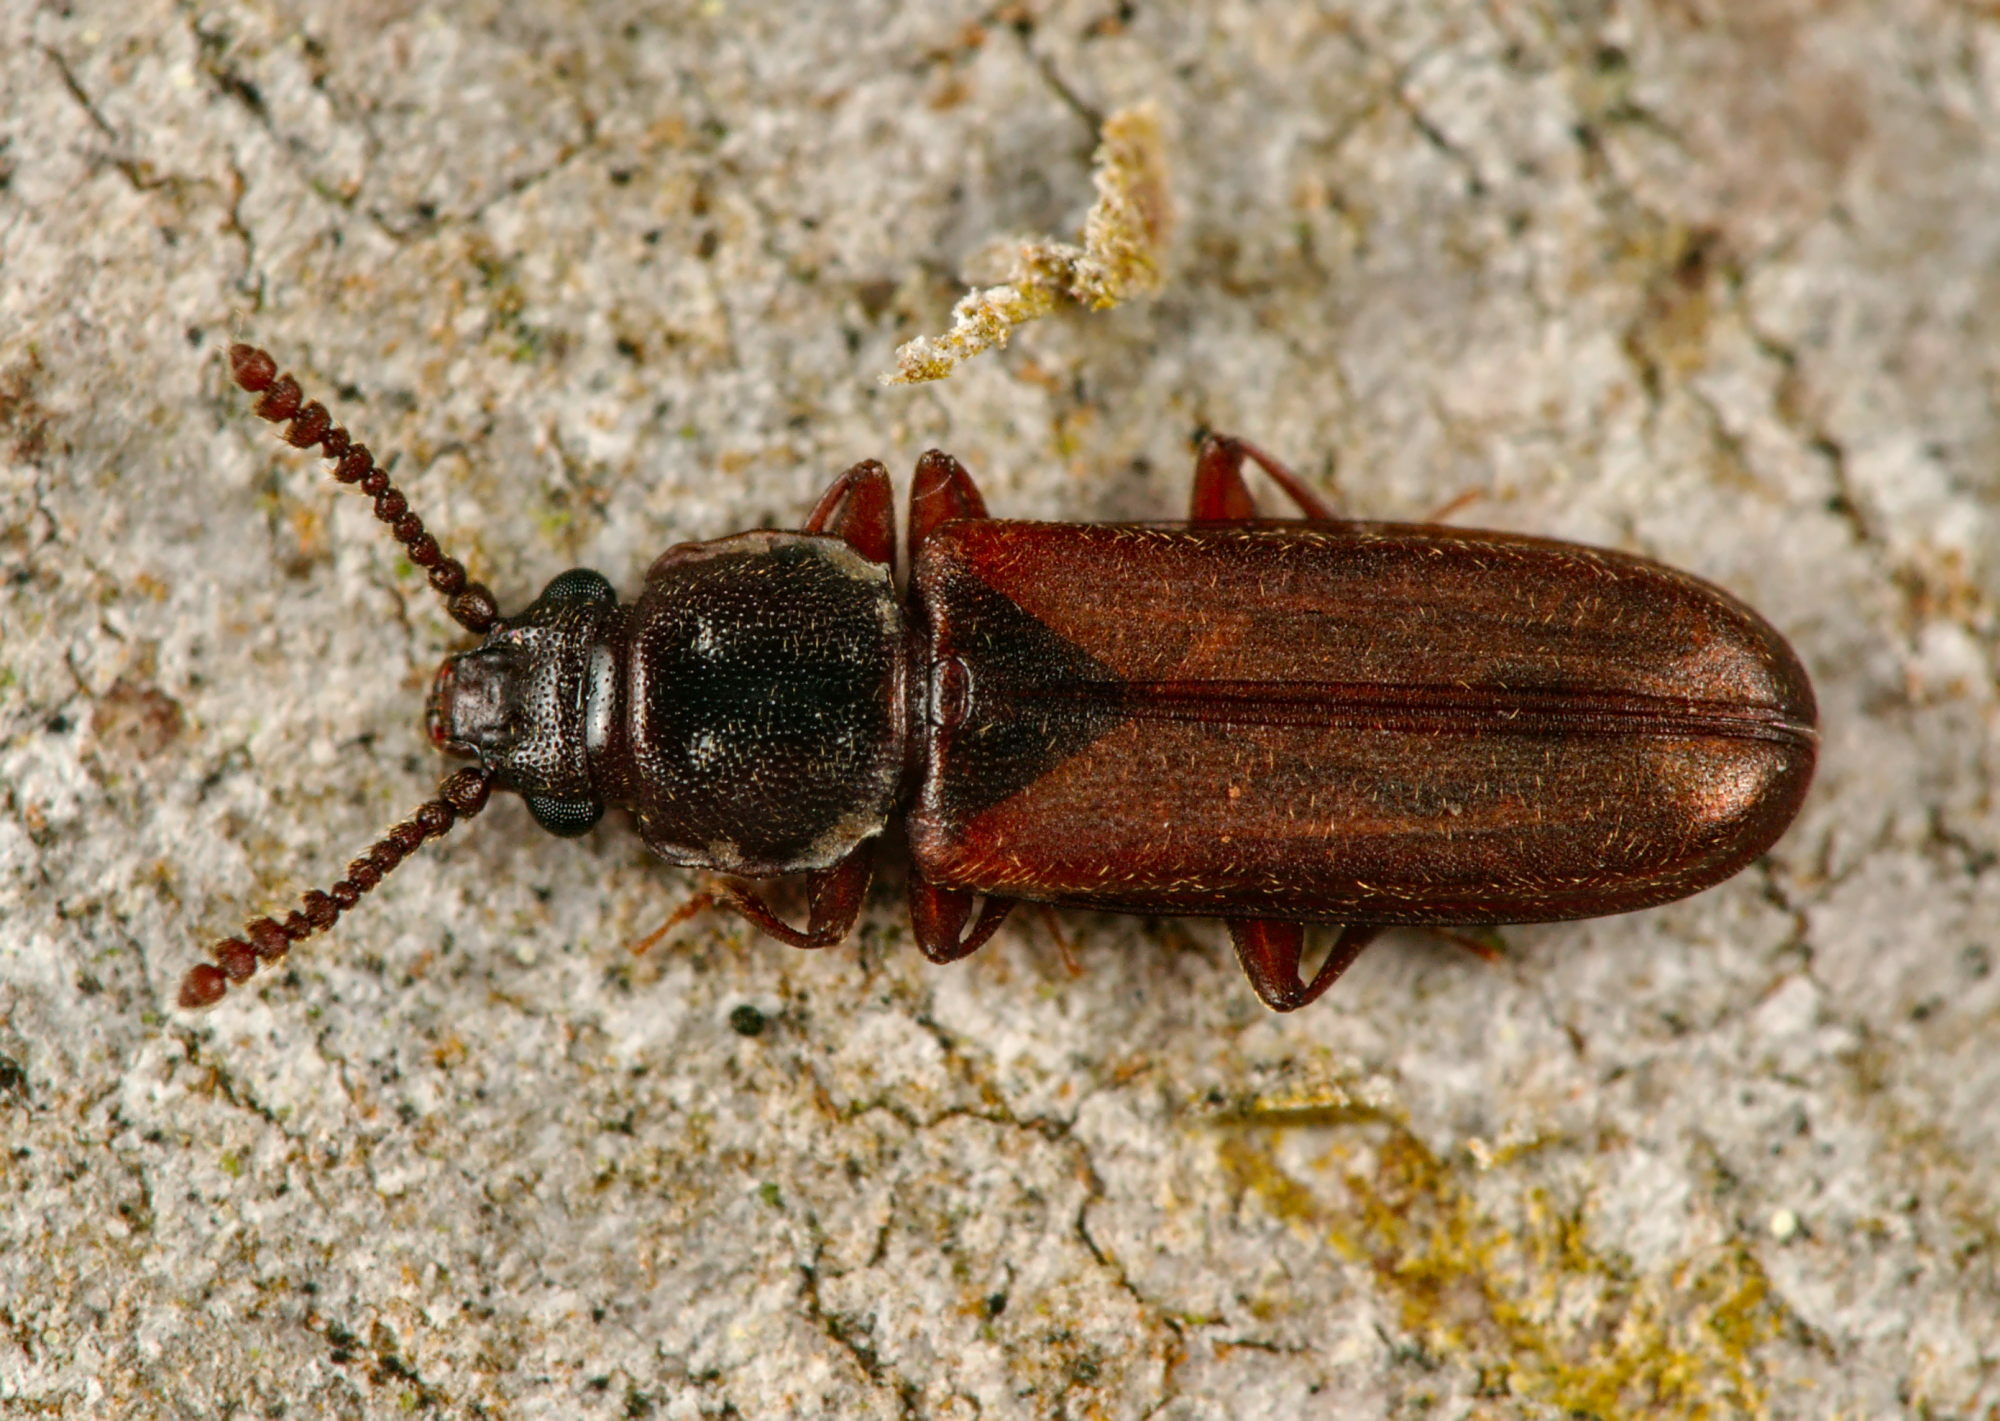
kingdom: Animalia
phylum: Arthropoda
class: Insecta
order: Coleoptera
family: Cucujidae
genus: Pediacus
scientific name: Pediacus dermestoides
